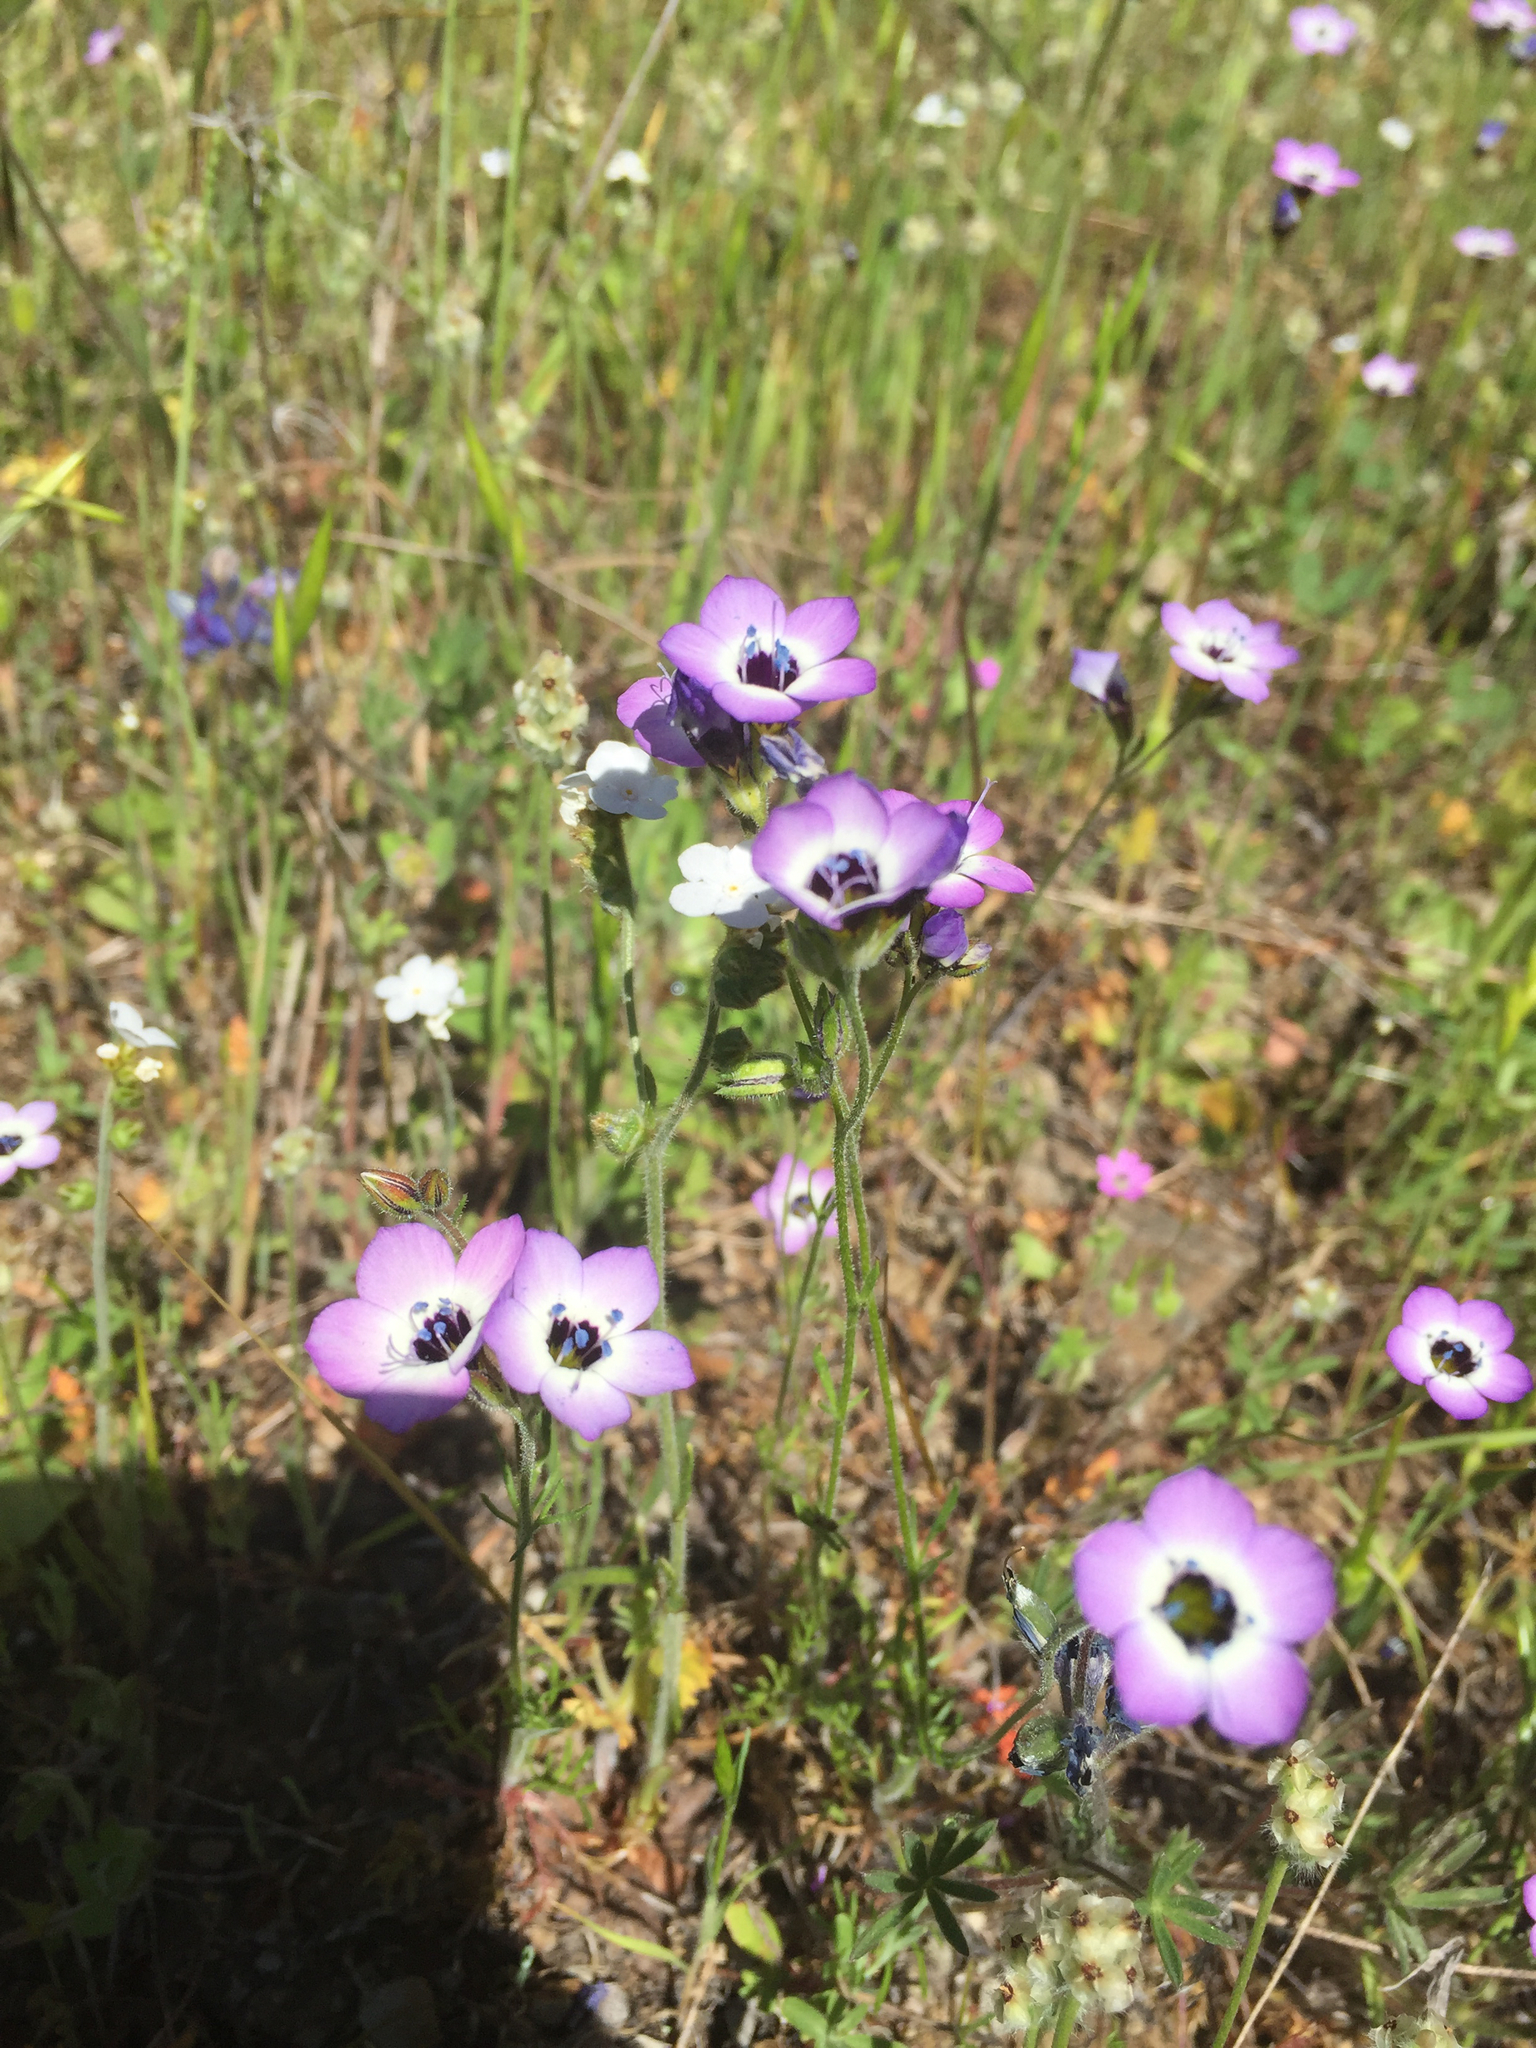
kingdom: Plantae
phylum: Tracheophyta
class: Magnoliopsida
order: Ericales
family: Polemoniaceae
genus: Gilia
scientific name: Gilia tricolor
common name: Bird's-eyes
